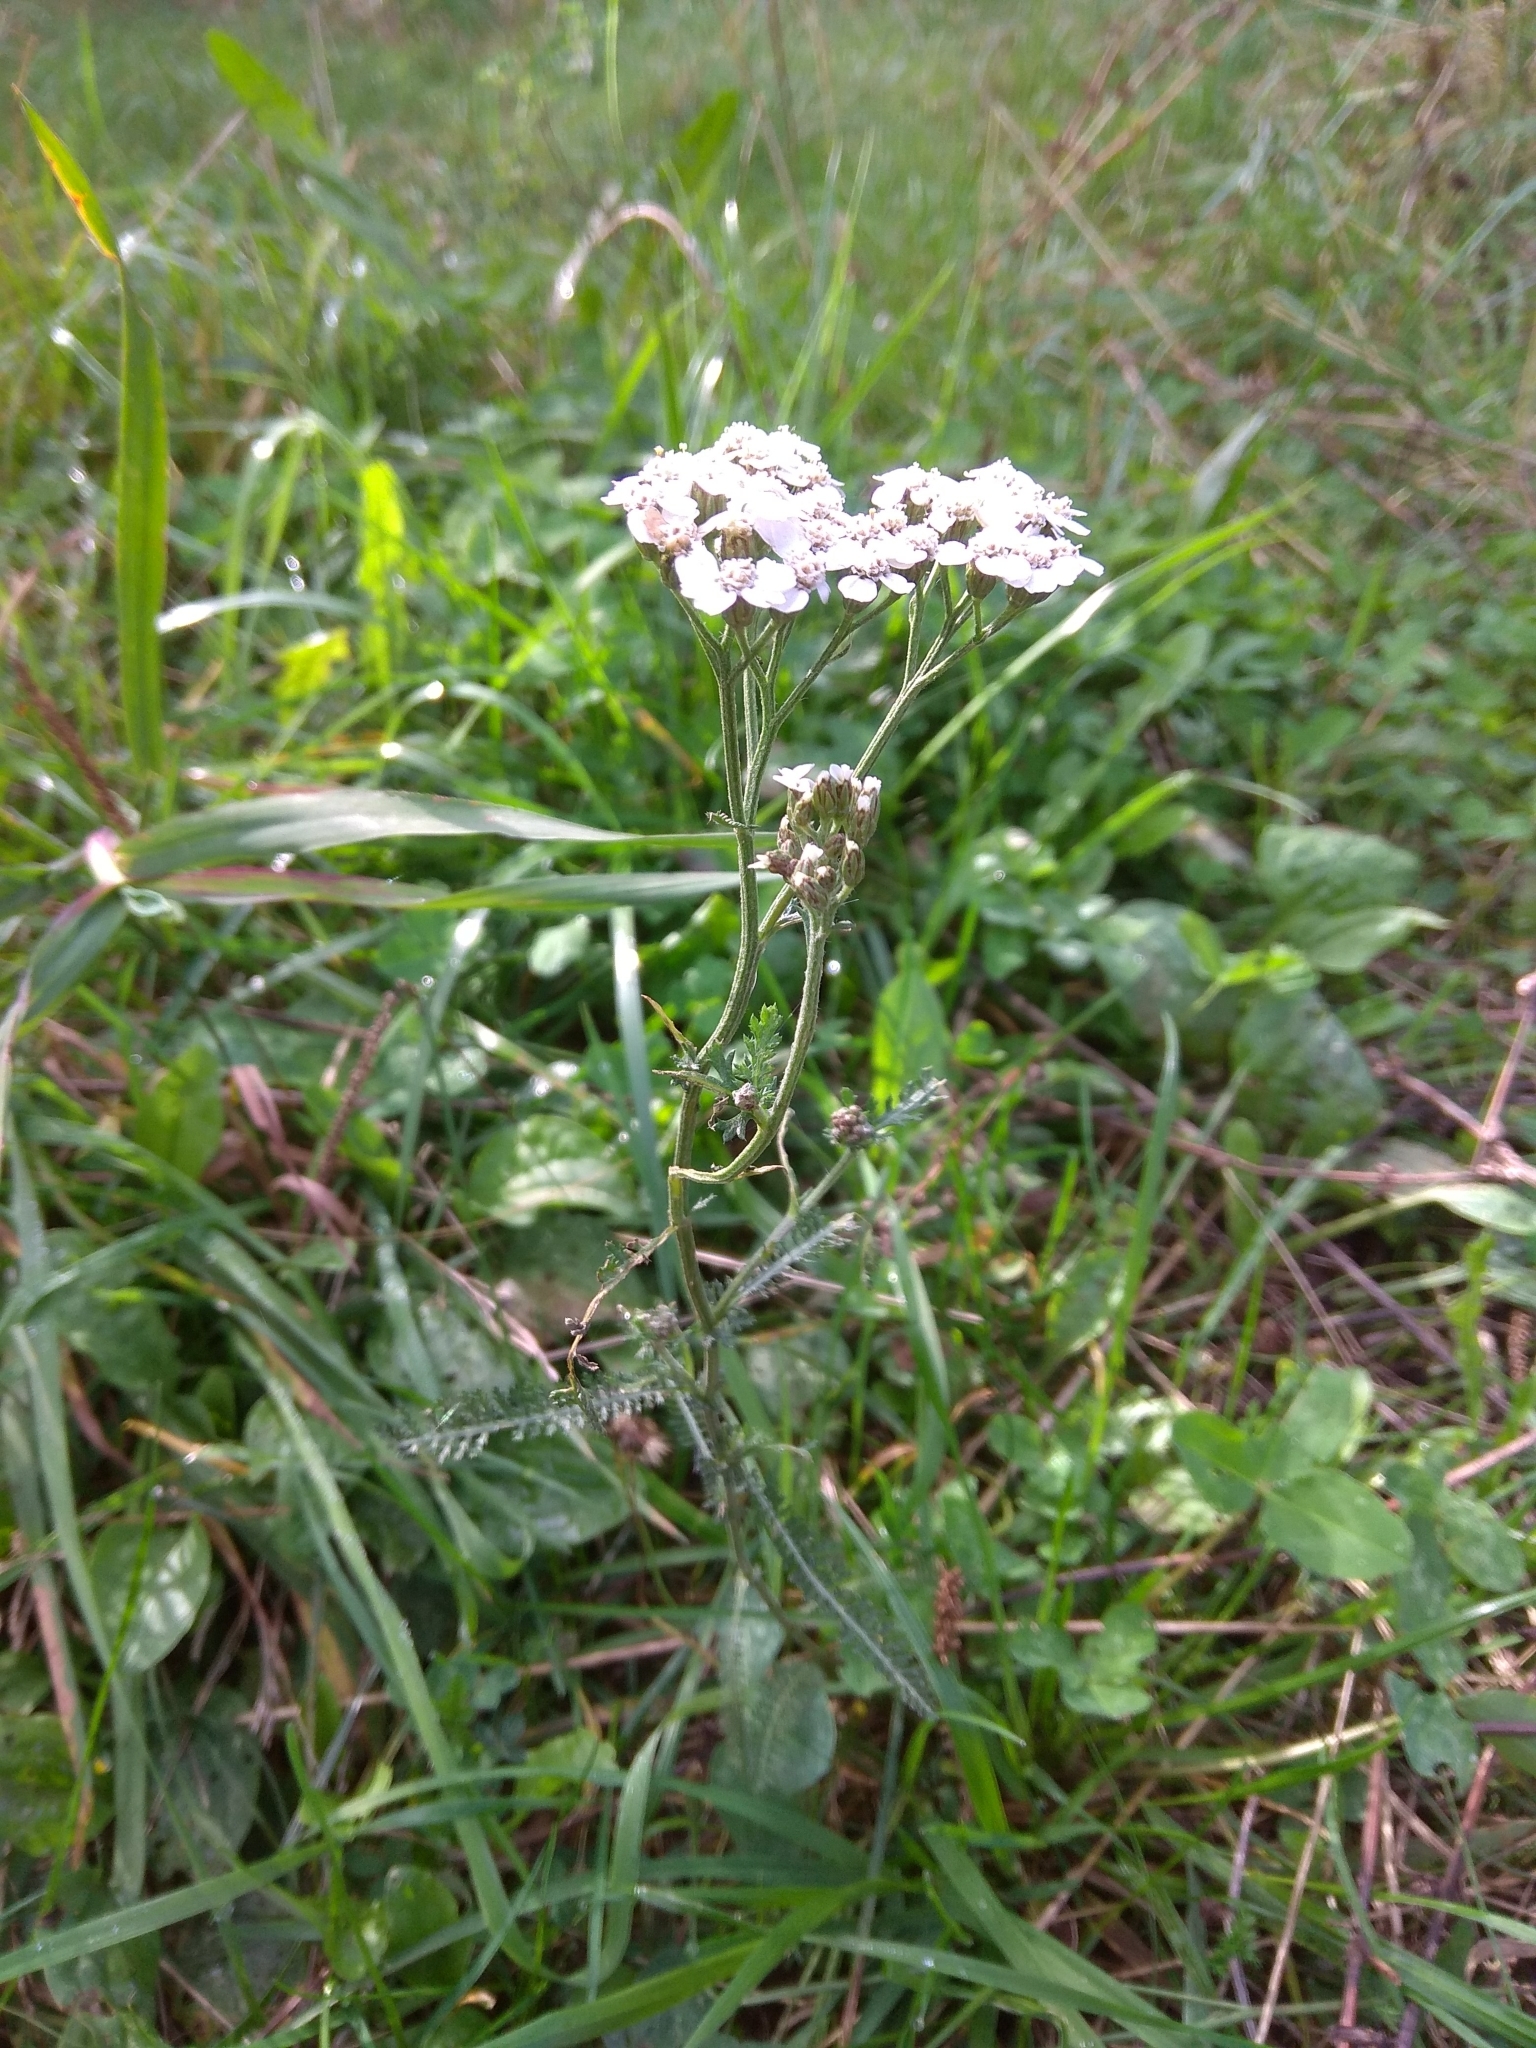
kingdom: Plantae
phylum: Tracheophyta
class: Magnoliopsida
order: Asterales
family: Asteraceae
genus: Achillea
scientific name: Achillea millefolium
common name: Yarrow
